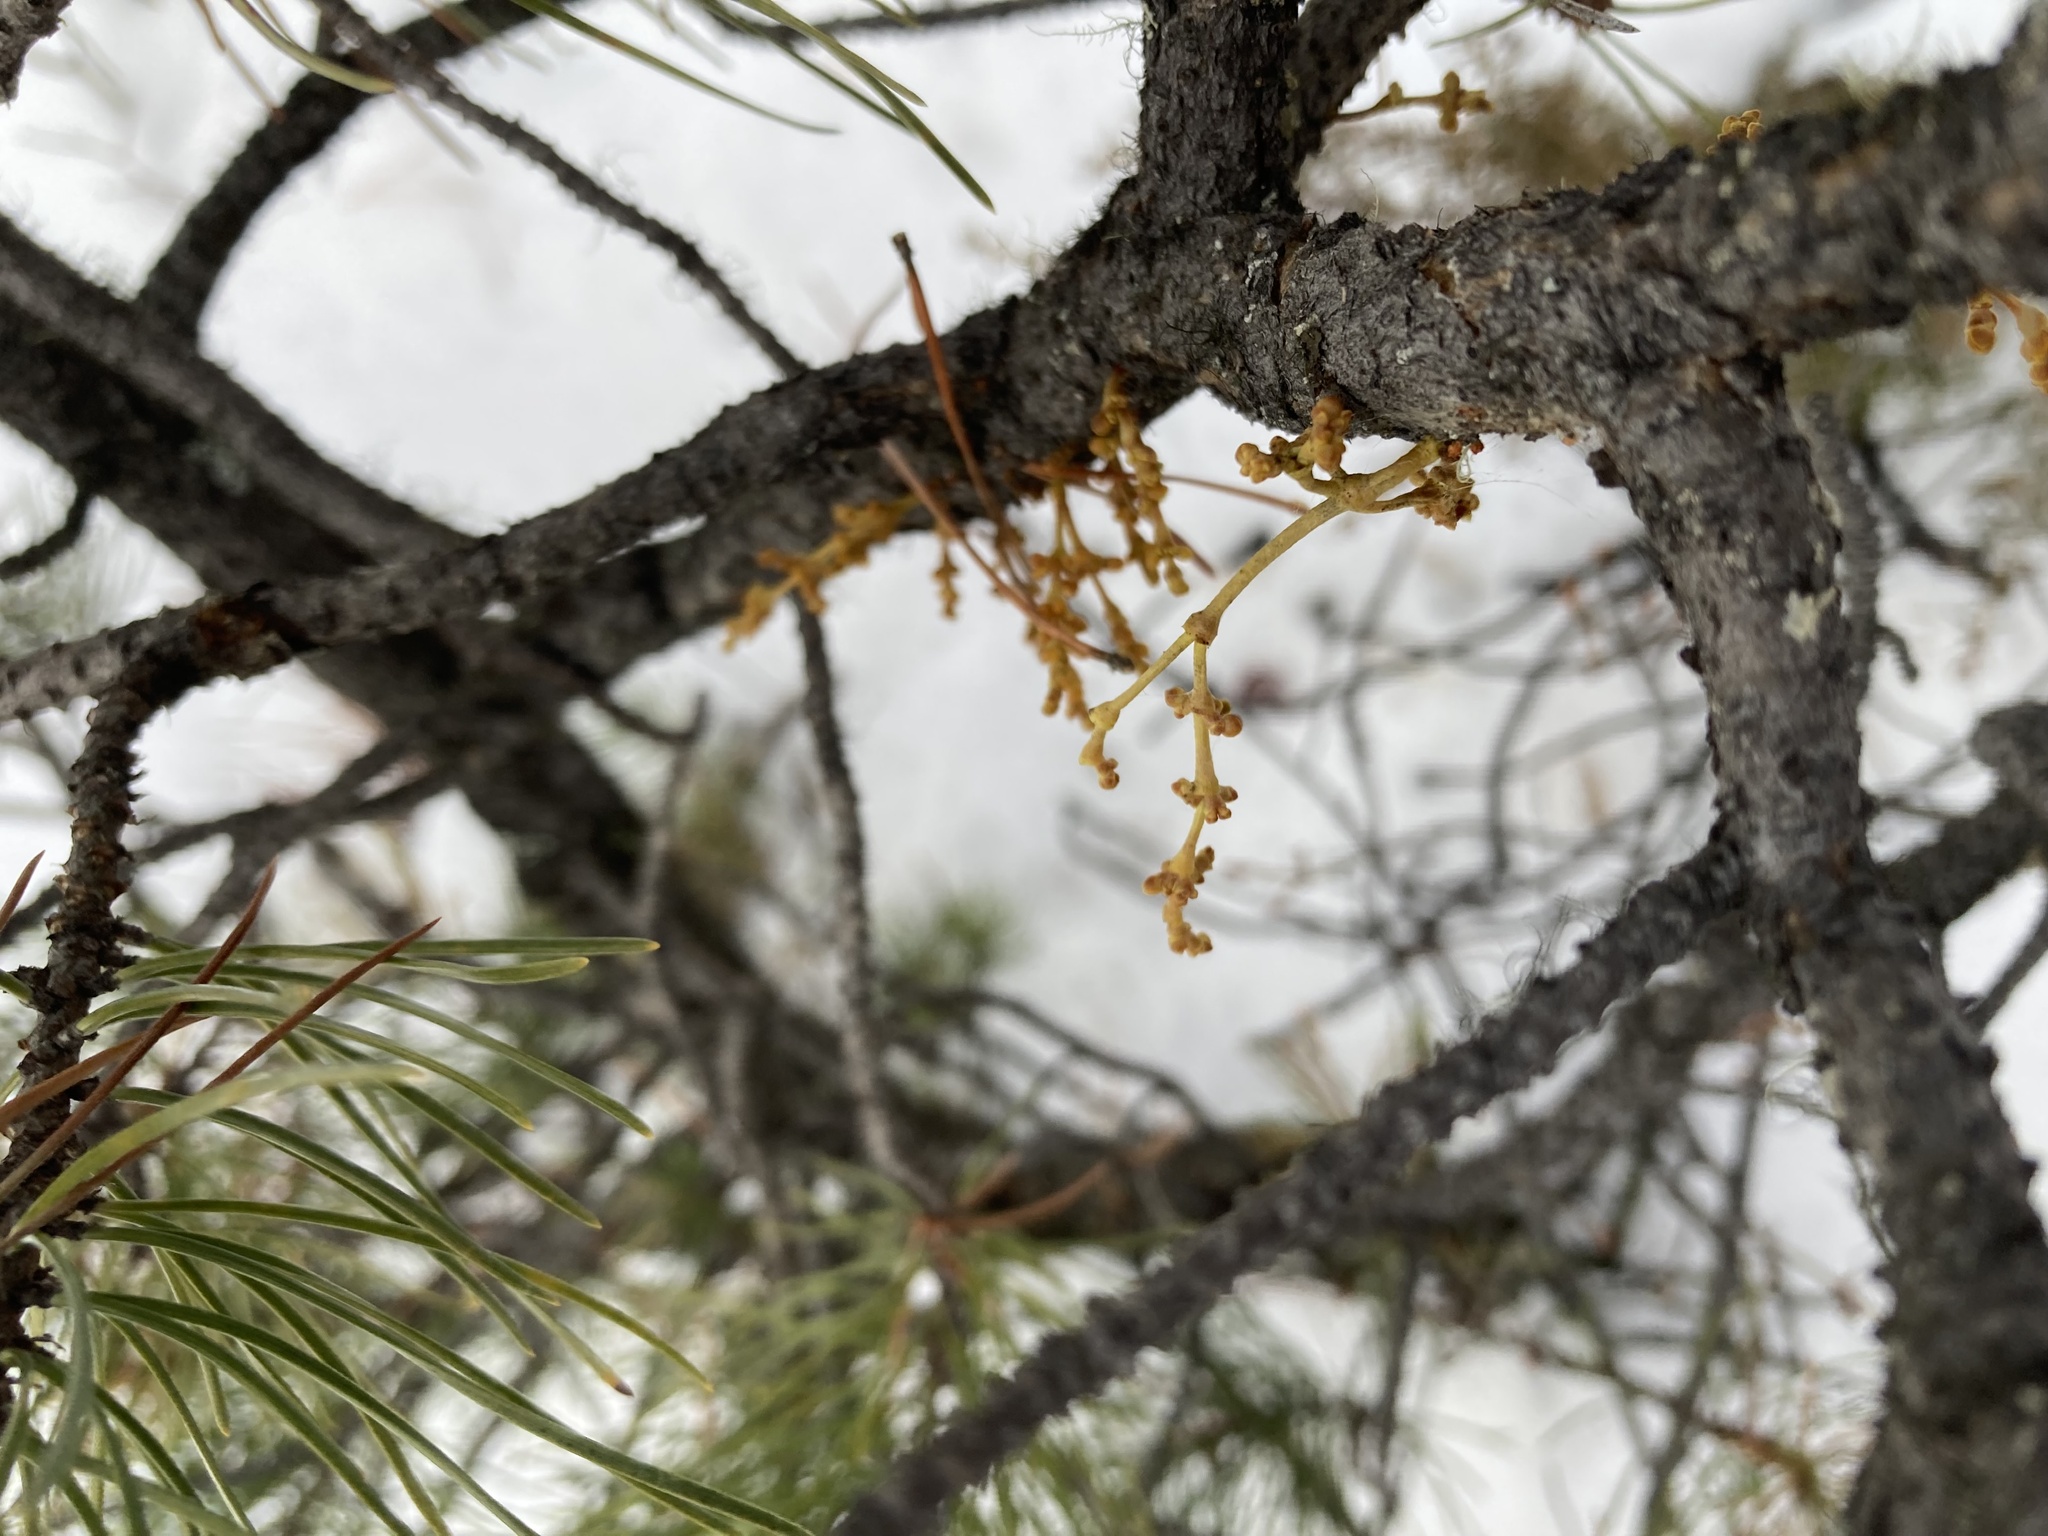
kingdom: Plantae
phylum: Tracheophyta
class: Magnoliopsida
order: Santalales
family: Viscaceae
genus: Arceuthobium
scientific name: Arceuthobium americanum
